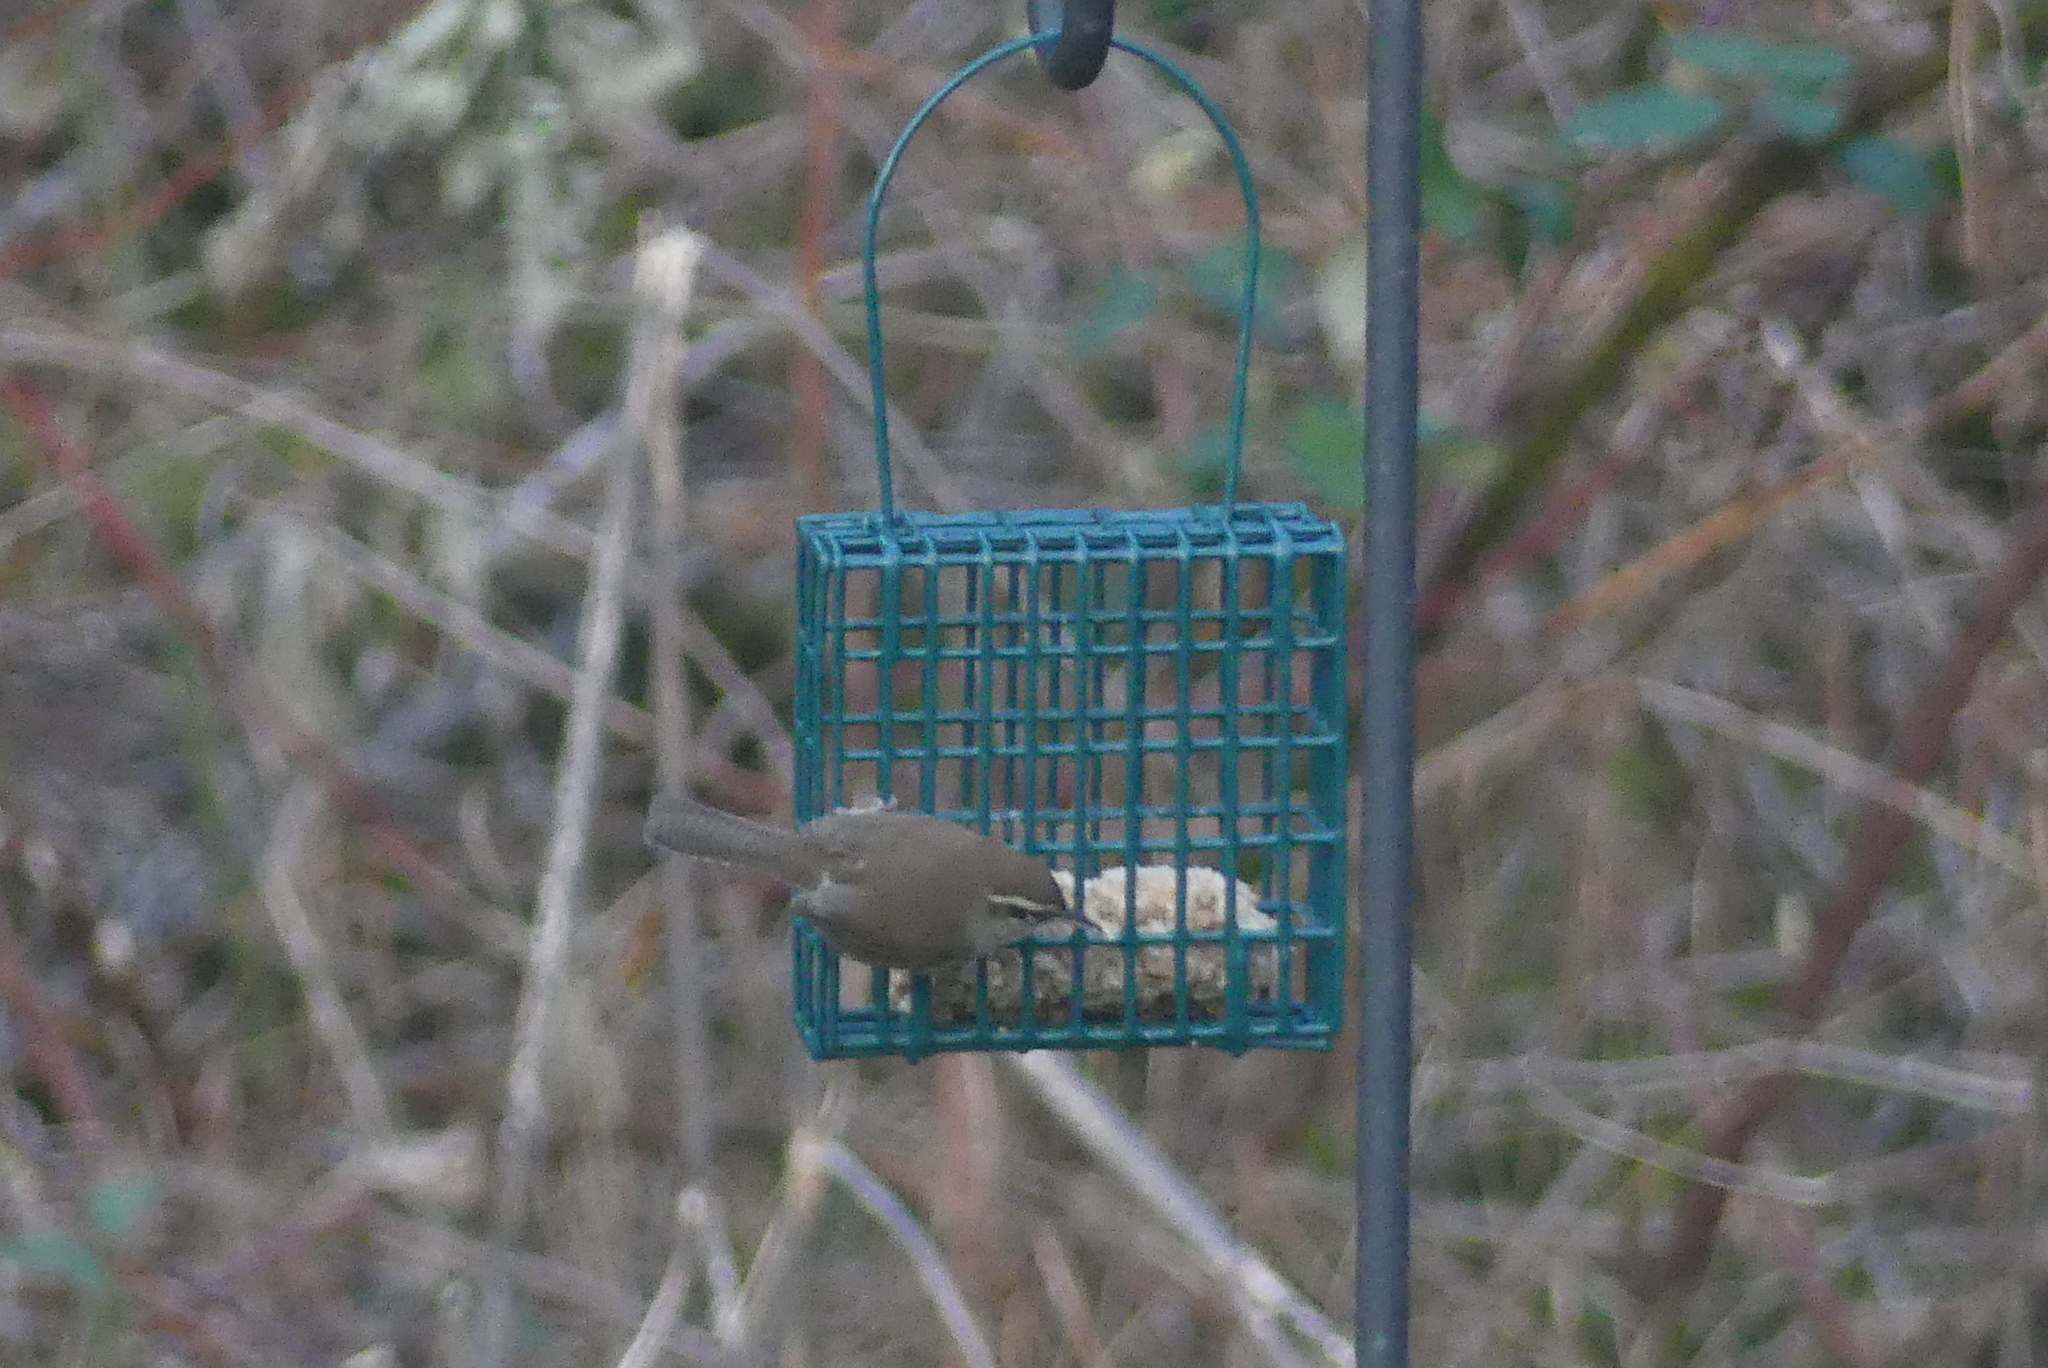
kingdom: Animalia
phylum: Chordata
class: Aves
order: Passeriformes
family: Troglodytidae
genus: Thryomanes
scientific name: Thryomanes bewickii
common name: Bewick's wren
